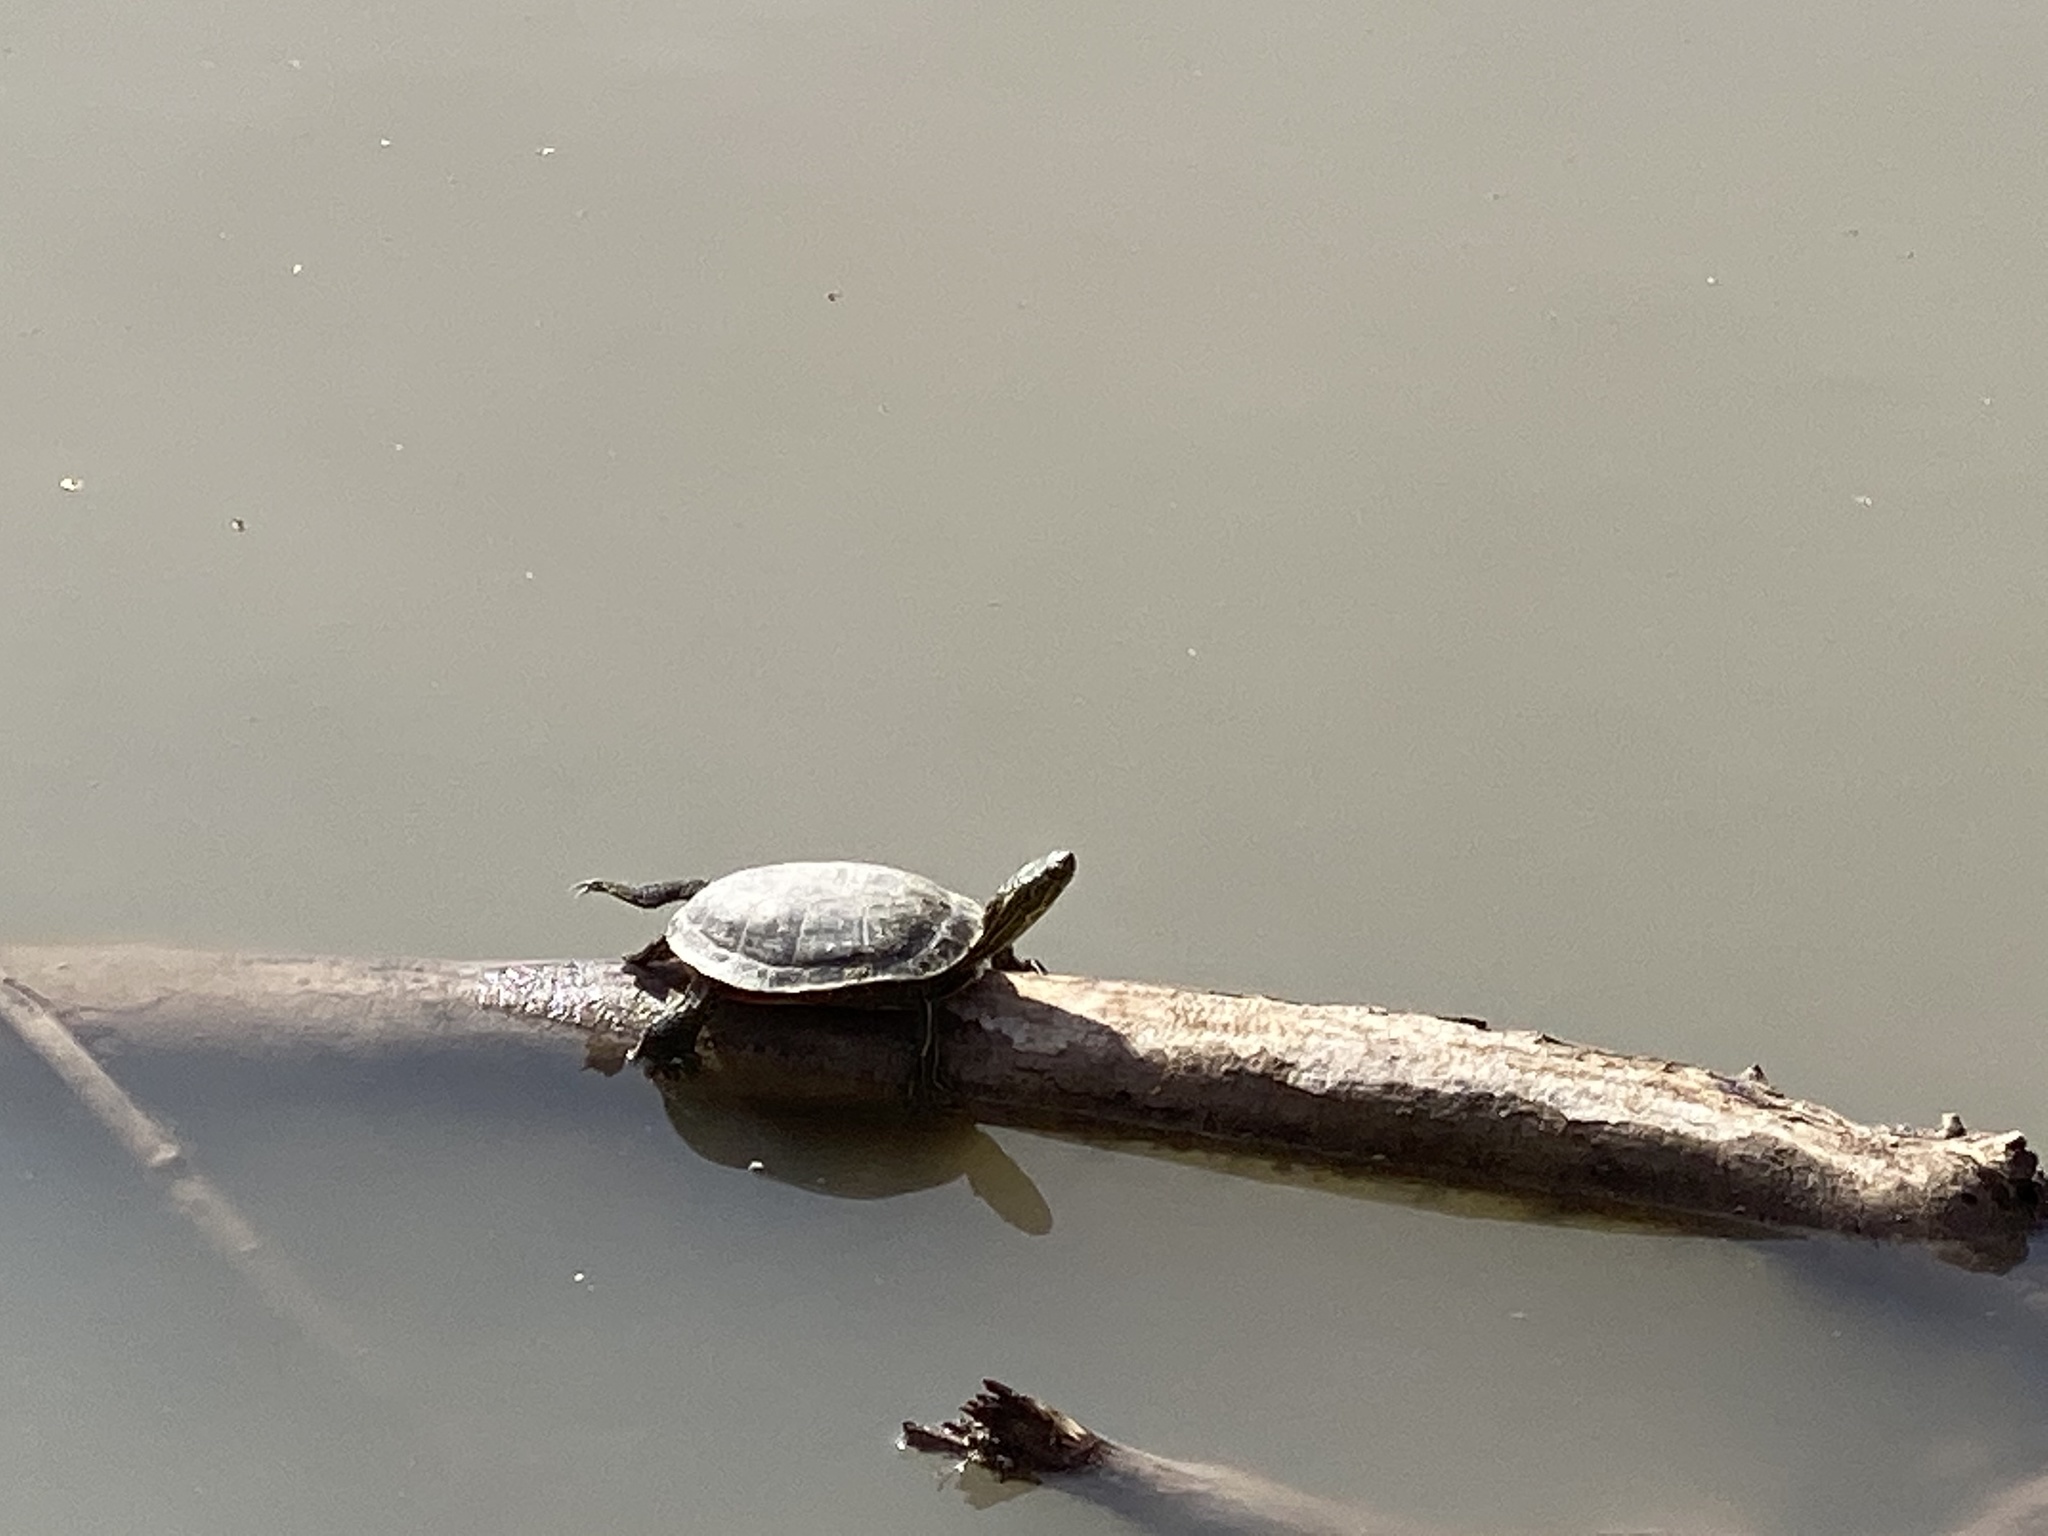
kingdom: Animalia
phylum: Chordata
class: Testudines
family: Emydidae
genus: Chrysemys
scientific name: Chrysemys picta
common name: Painted turtle
